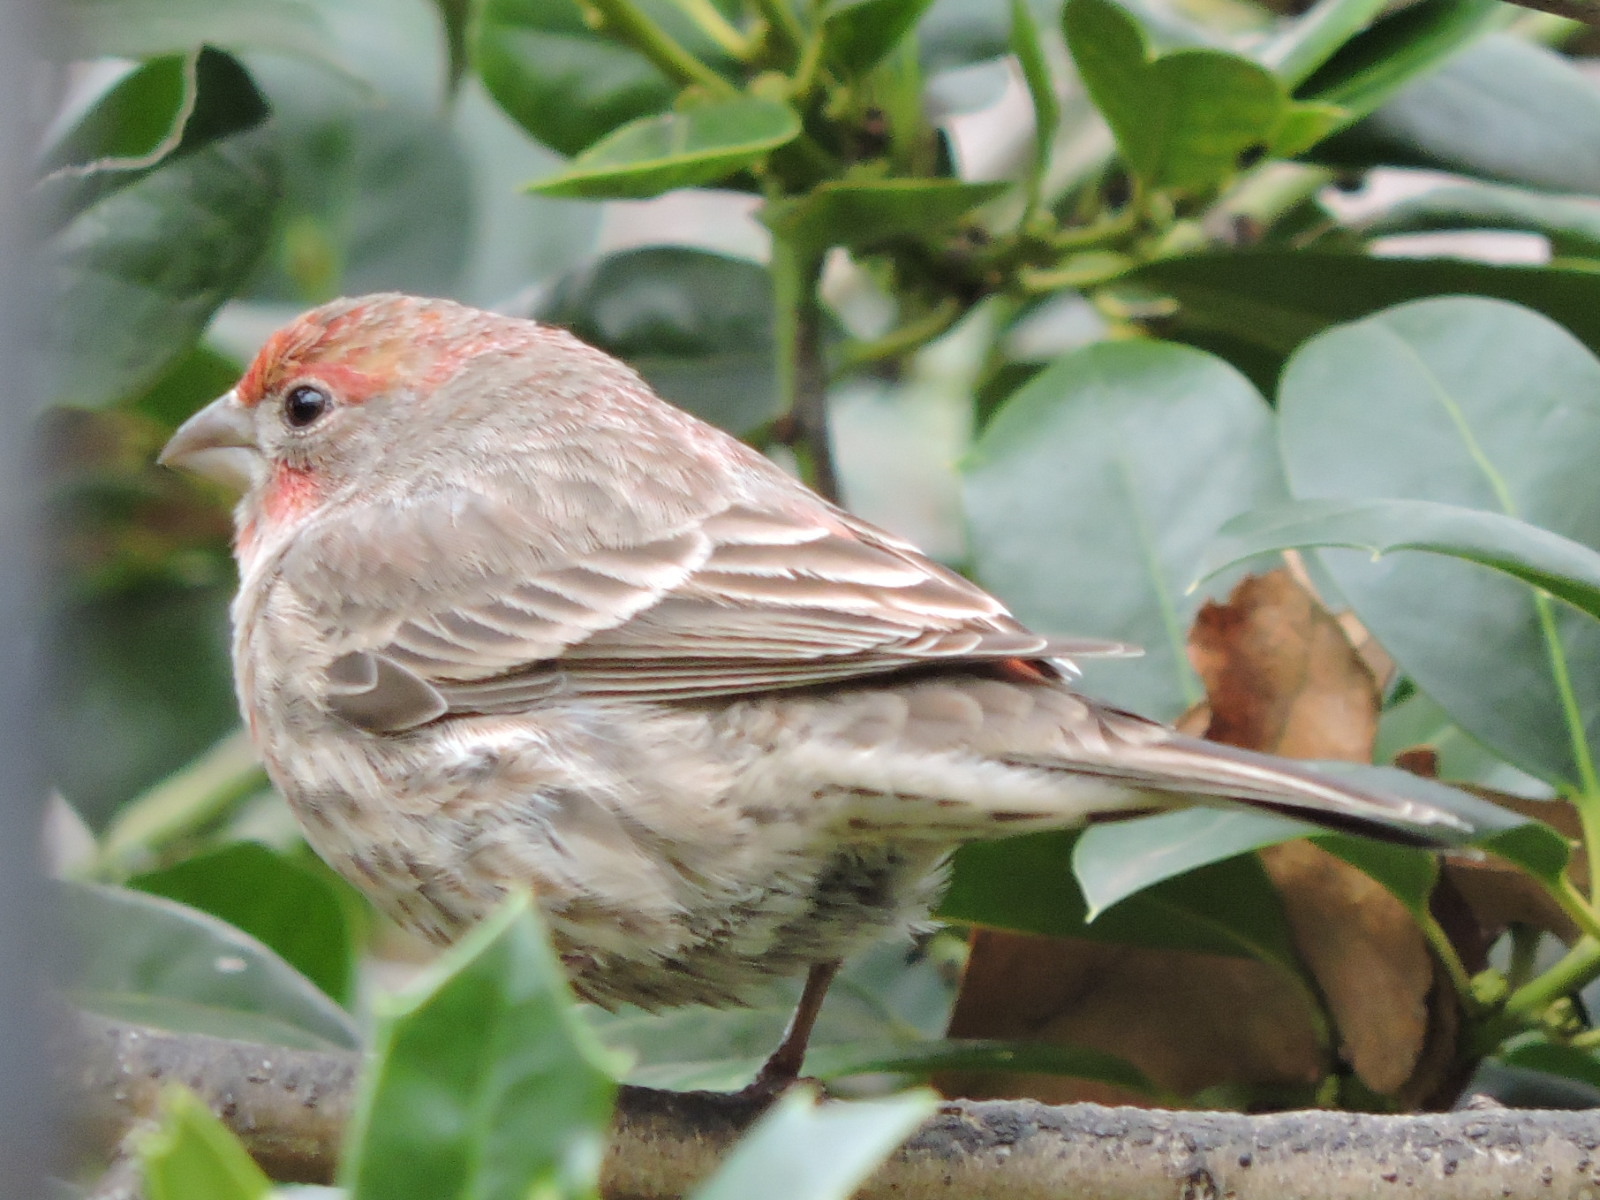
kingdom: Animalia
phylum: Chordata
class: Aves
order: Passeriformes
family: Fringillidae
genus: Haemorhous
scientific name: Haemorhous mexicanus
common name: House finch
